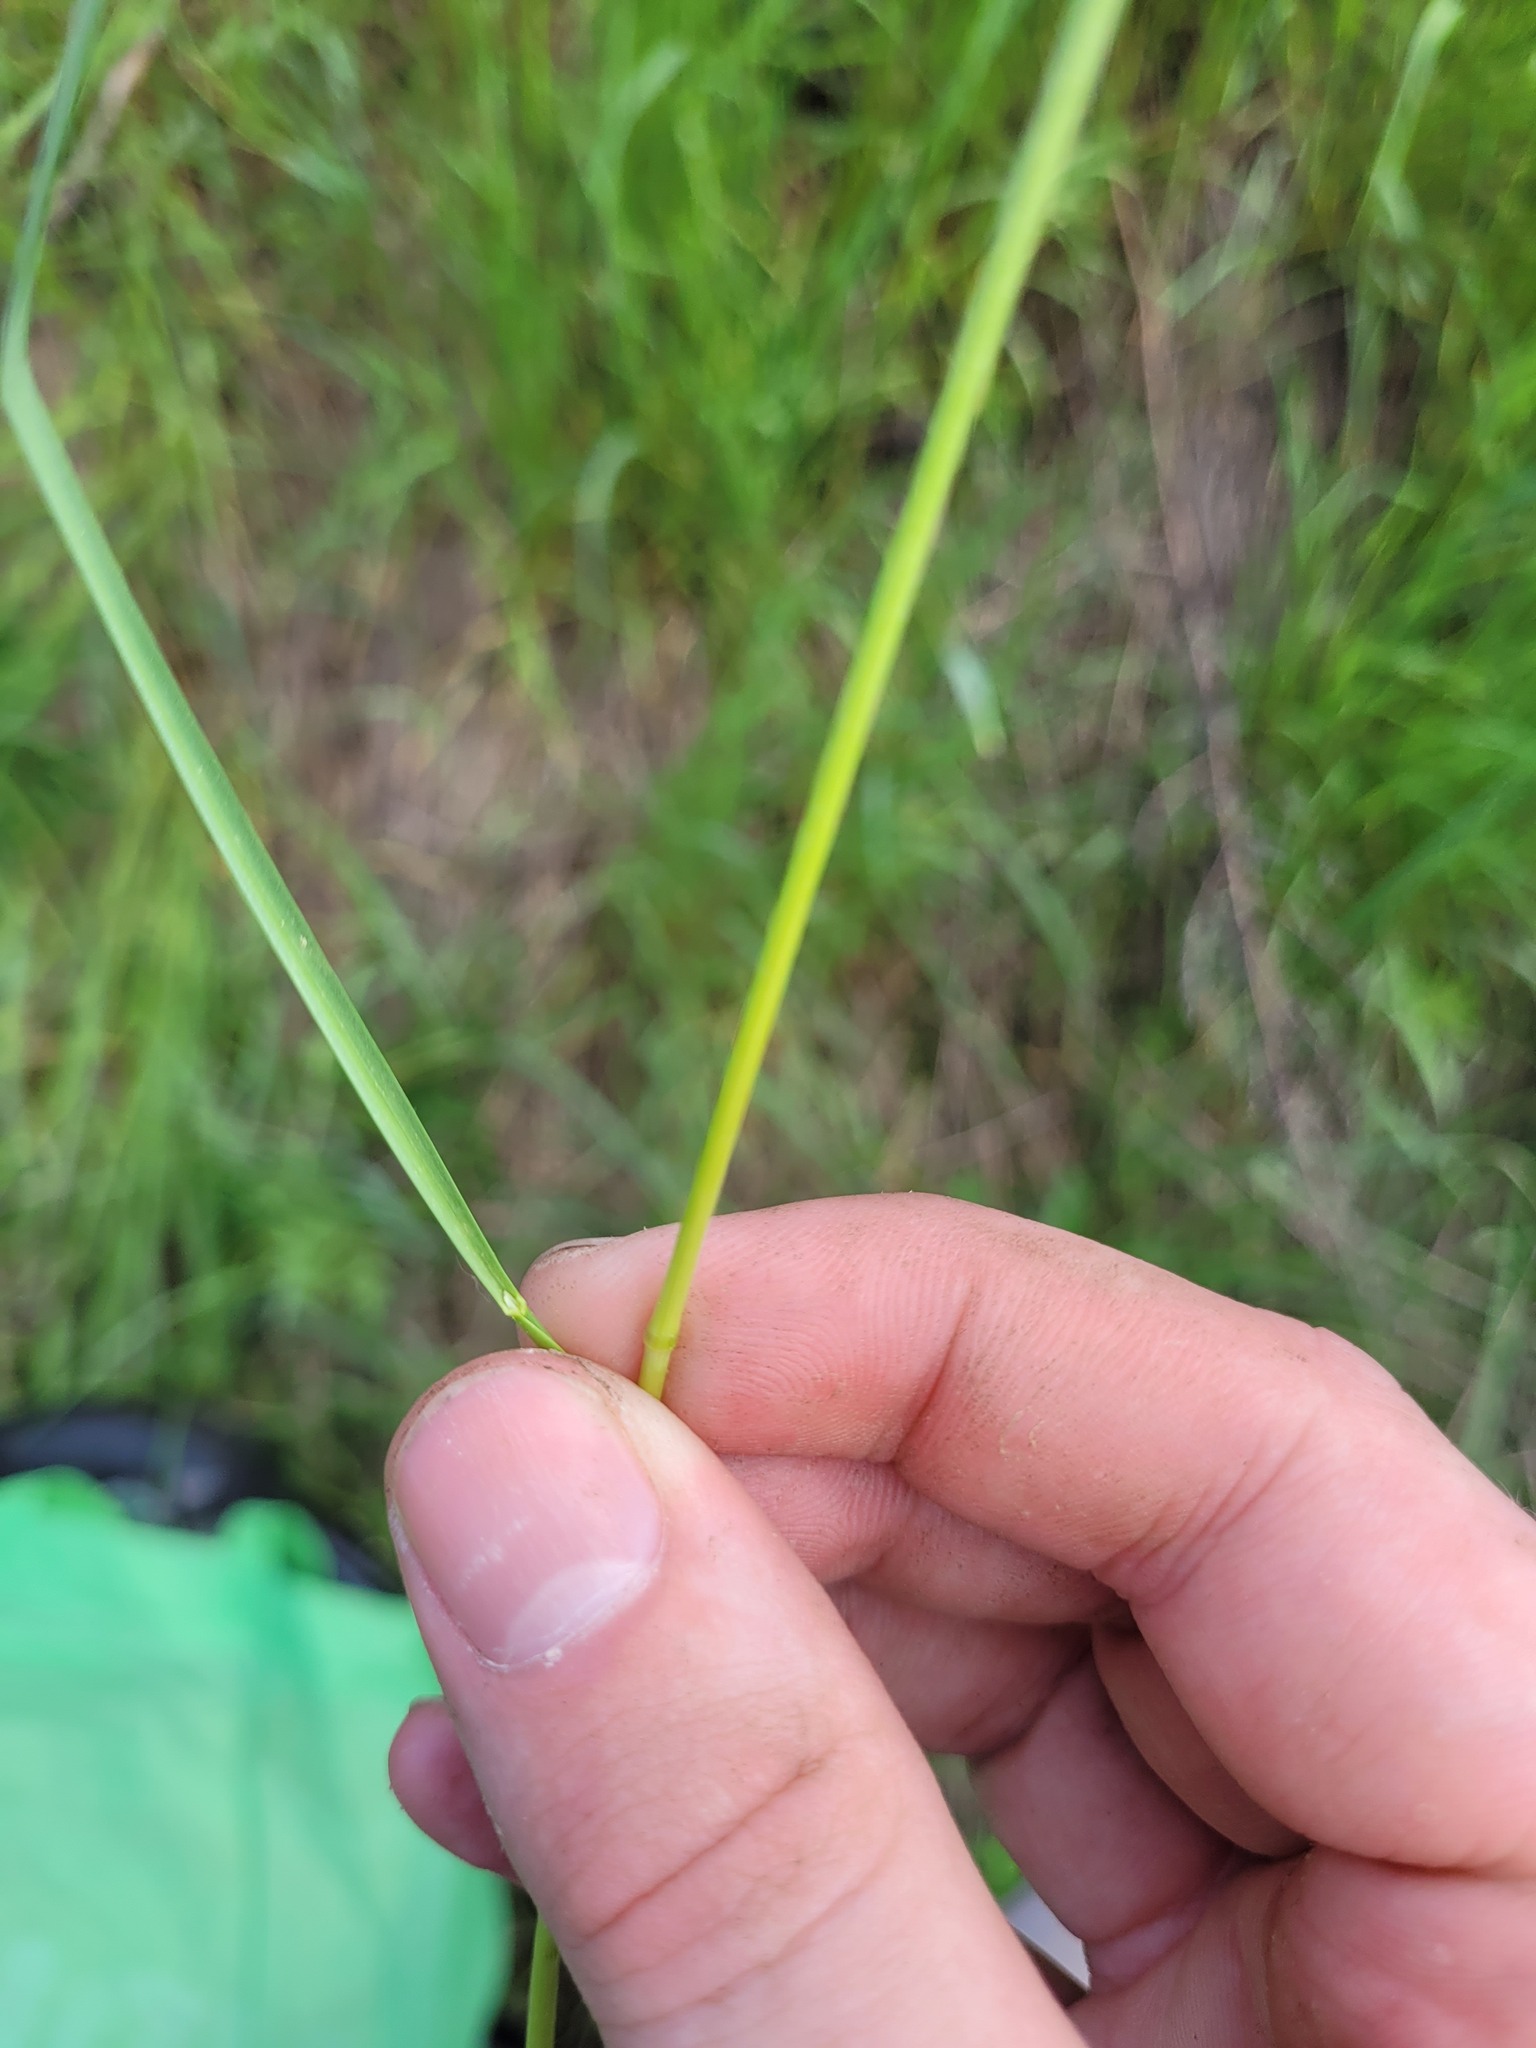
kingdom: Plantae
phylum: Tracheophyta
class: Liliopsida
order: Poales
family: Poaceae
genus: Poa
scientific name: Poa pratensis
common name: Kentucky bluegrass
